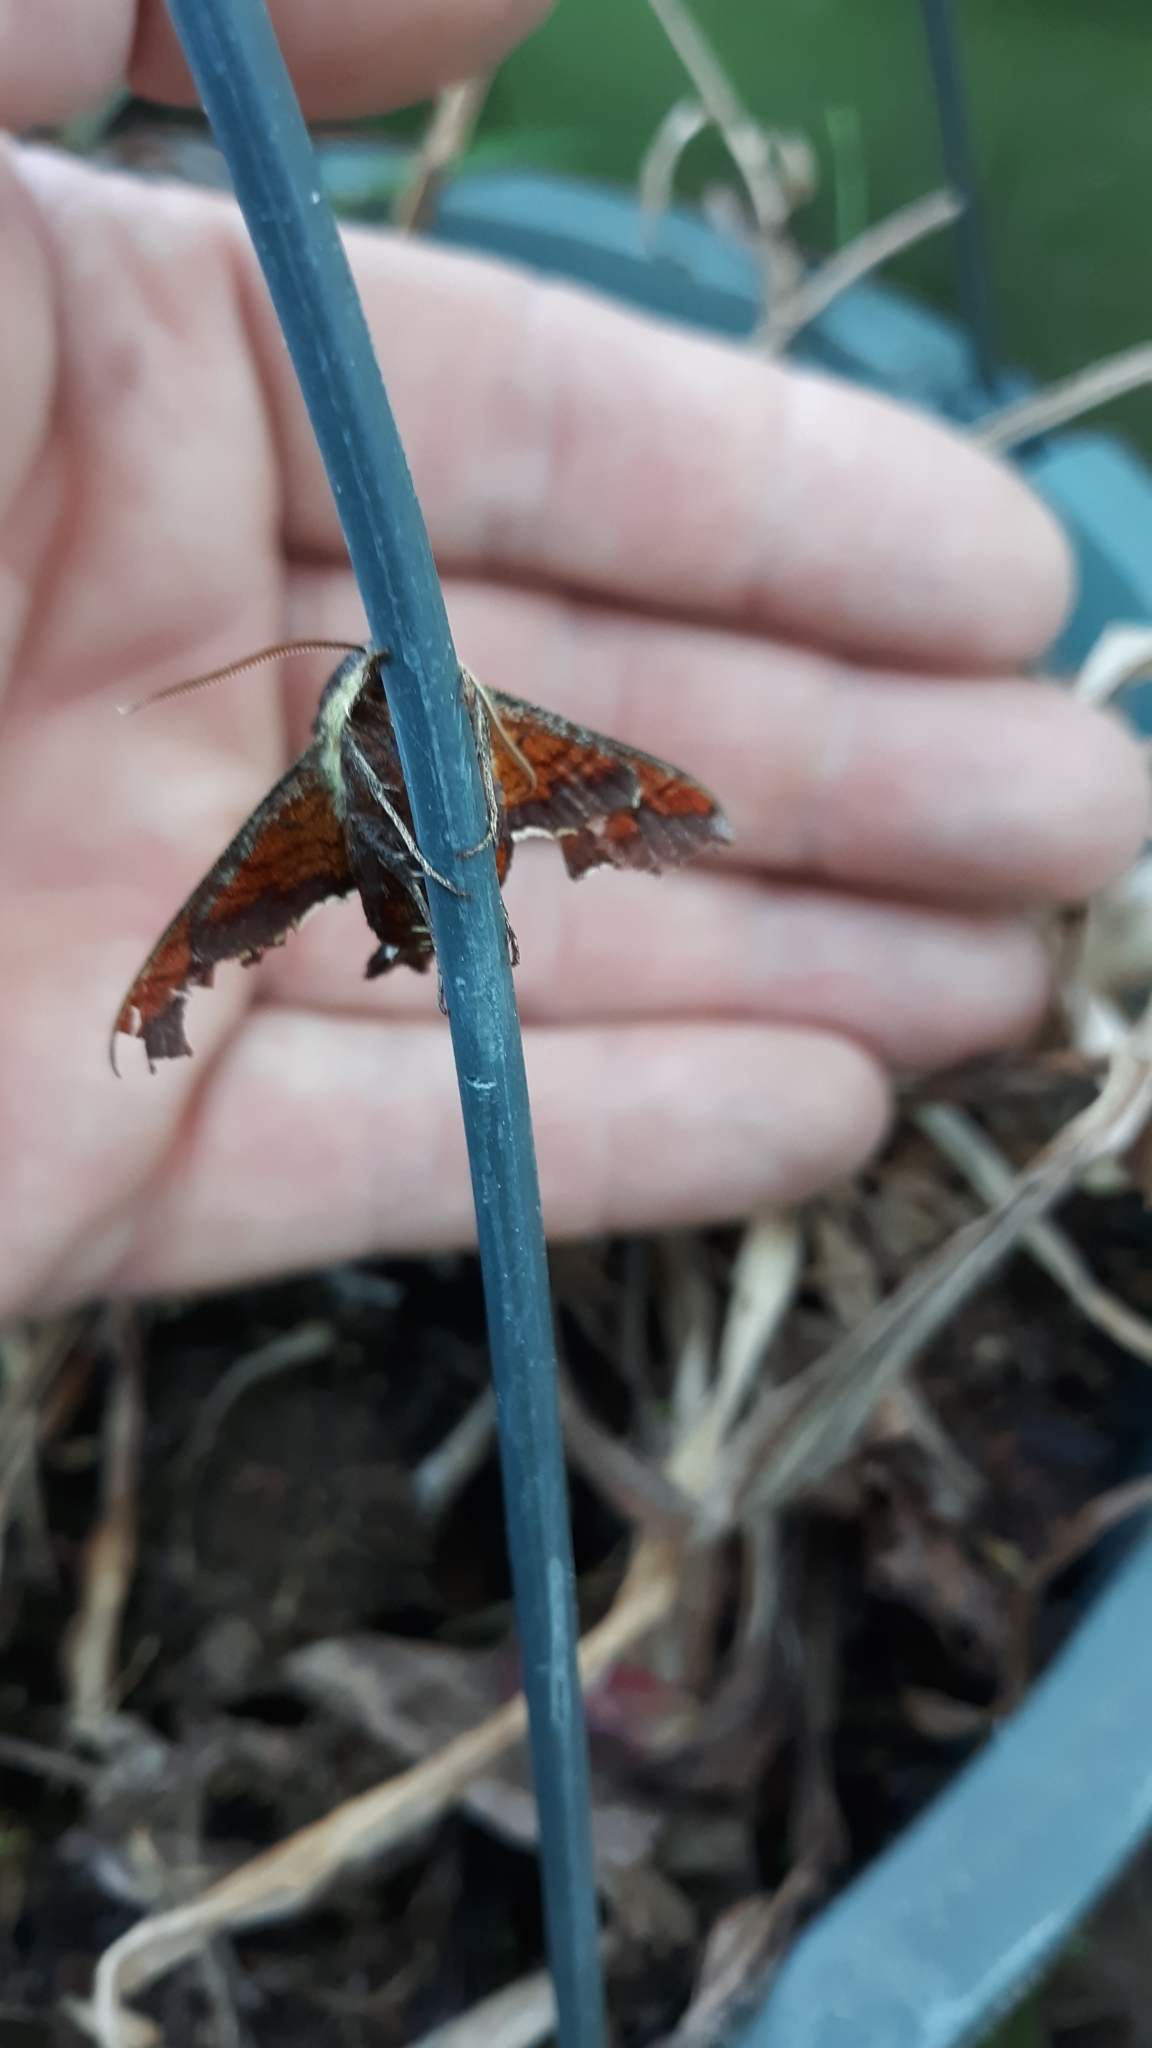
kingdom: Animalia
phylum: Arthropoda
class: Insecta
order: Lepidoptera
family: Sphingidae
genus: Amphion
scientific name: Amphion floridensis
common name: Nessus sphinx
